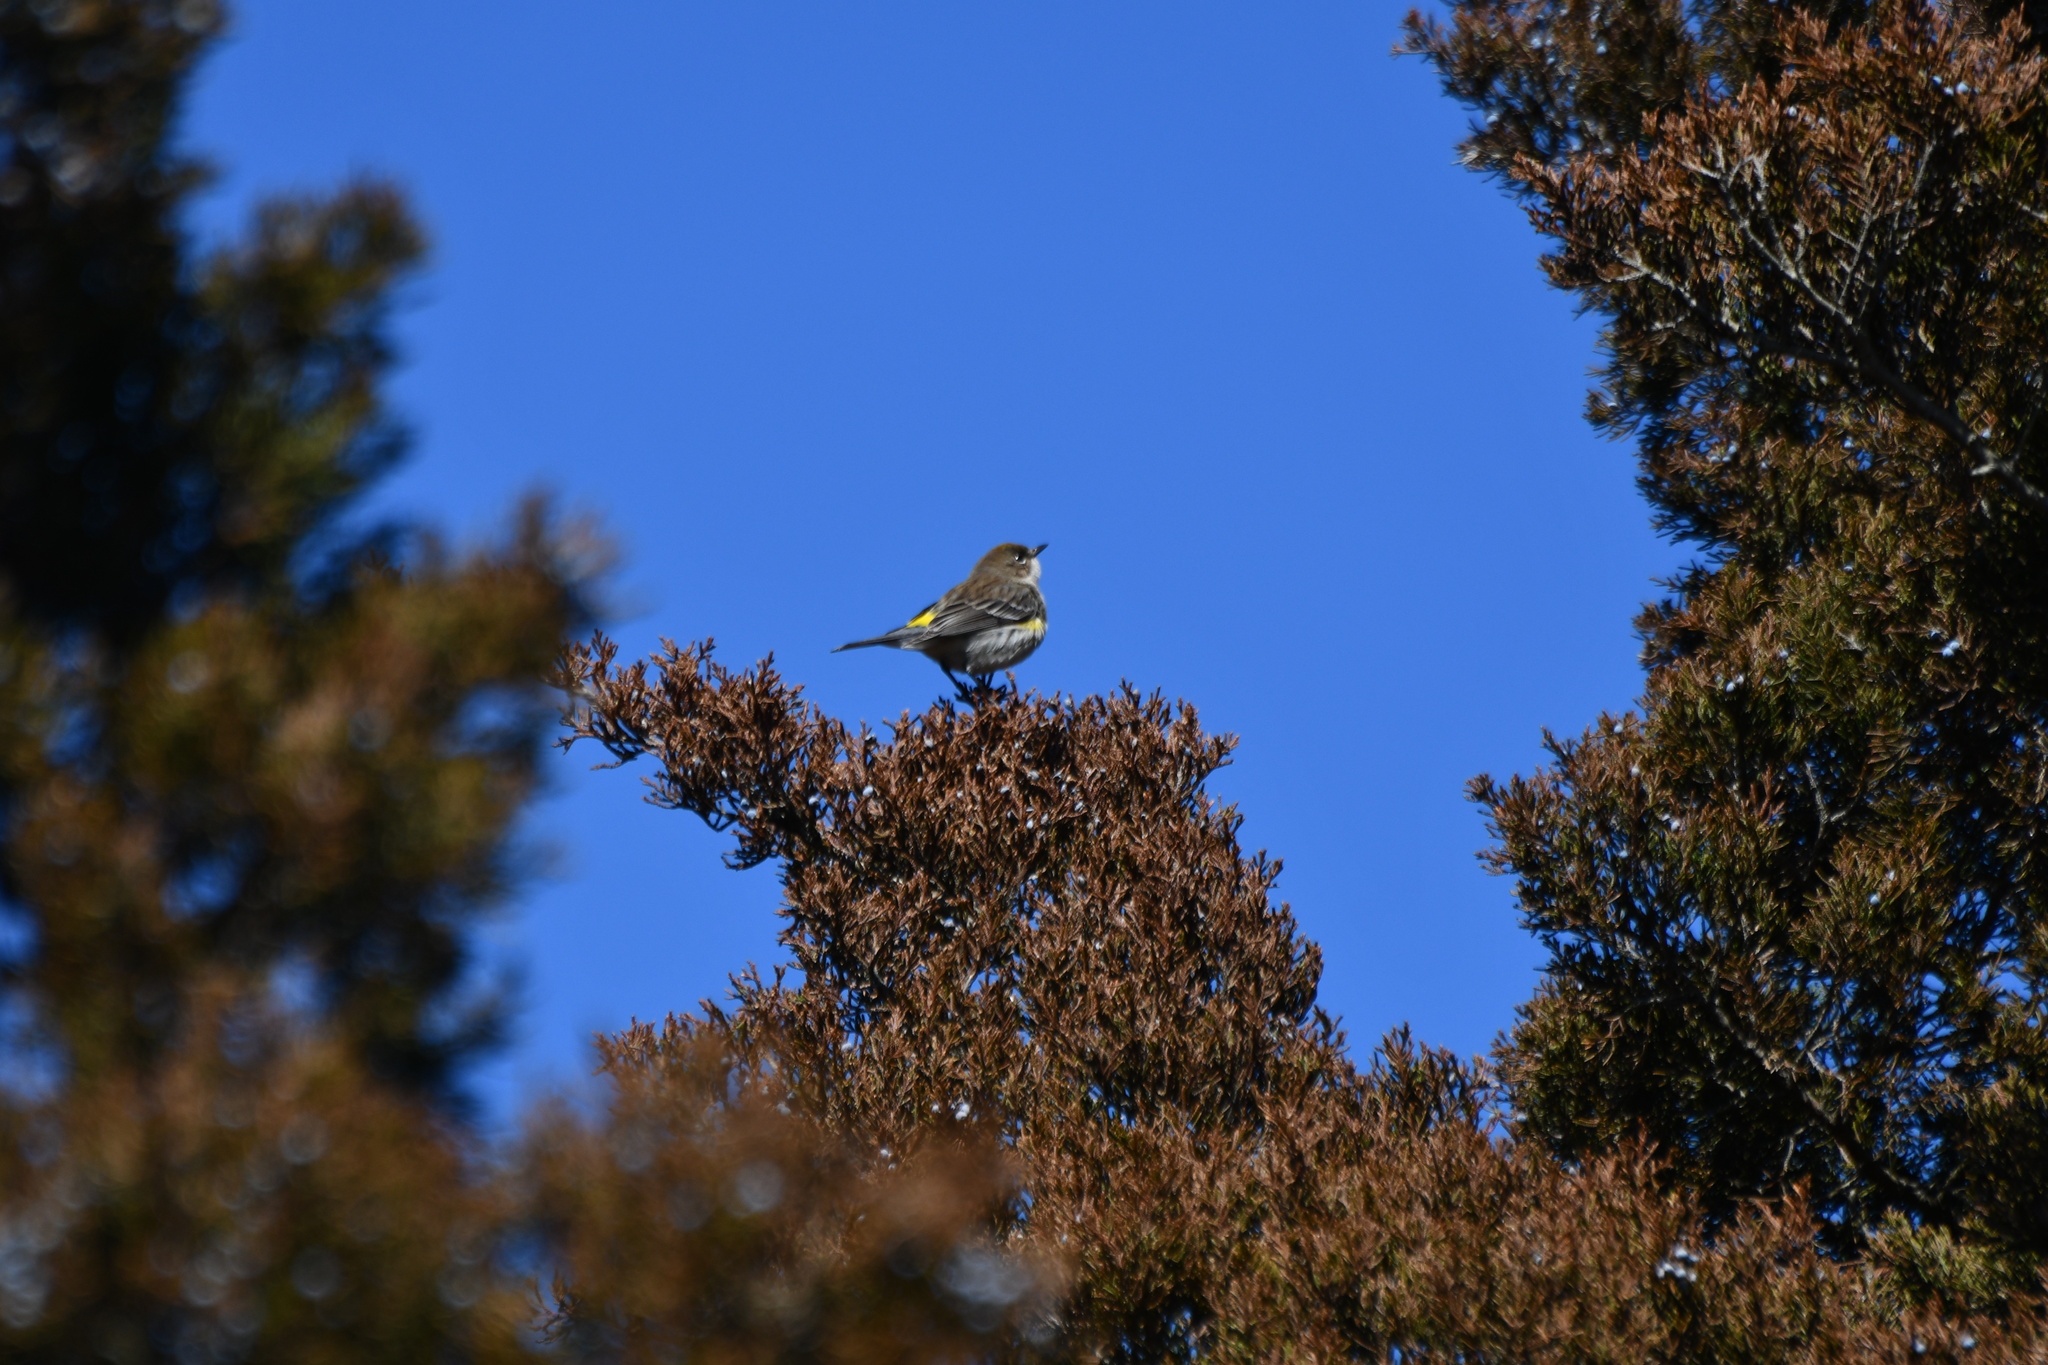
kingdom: Animalia
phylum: Chordata
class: Aves
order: Passeriformes
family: Parulidae
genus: Setophaga
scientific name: Setophaga coronata
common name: Myrtle warbler
